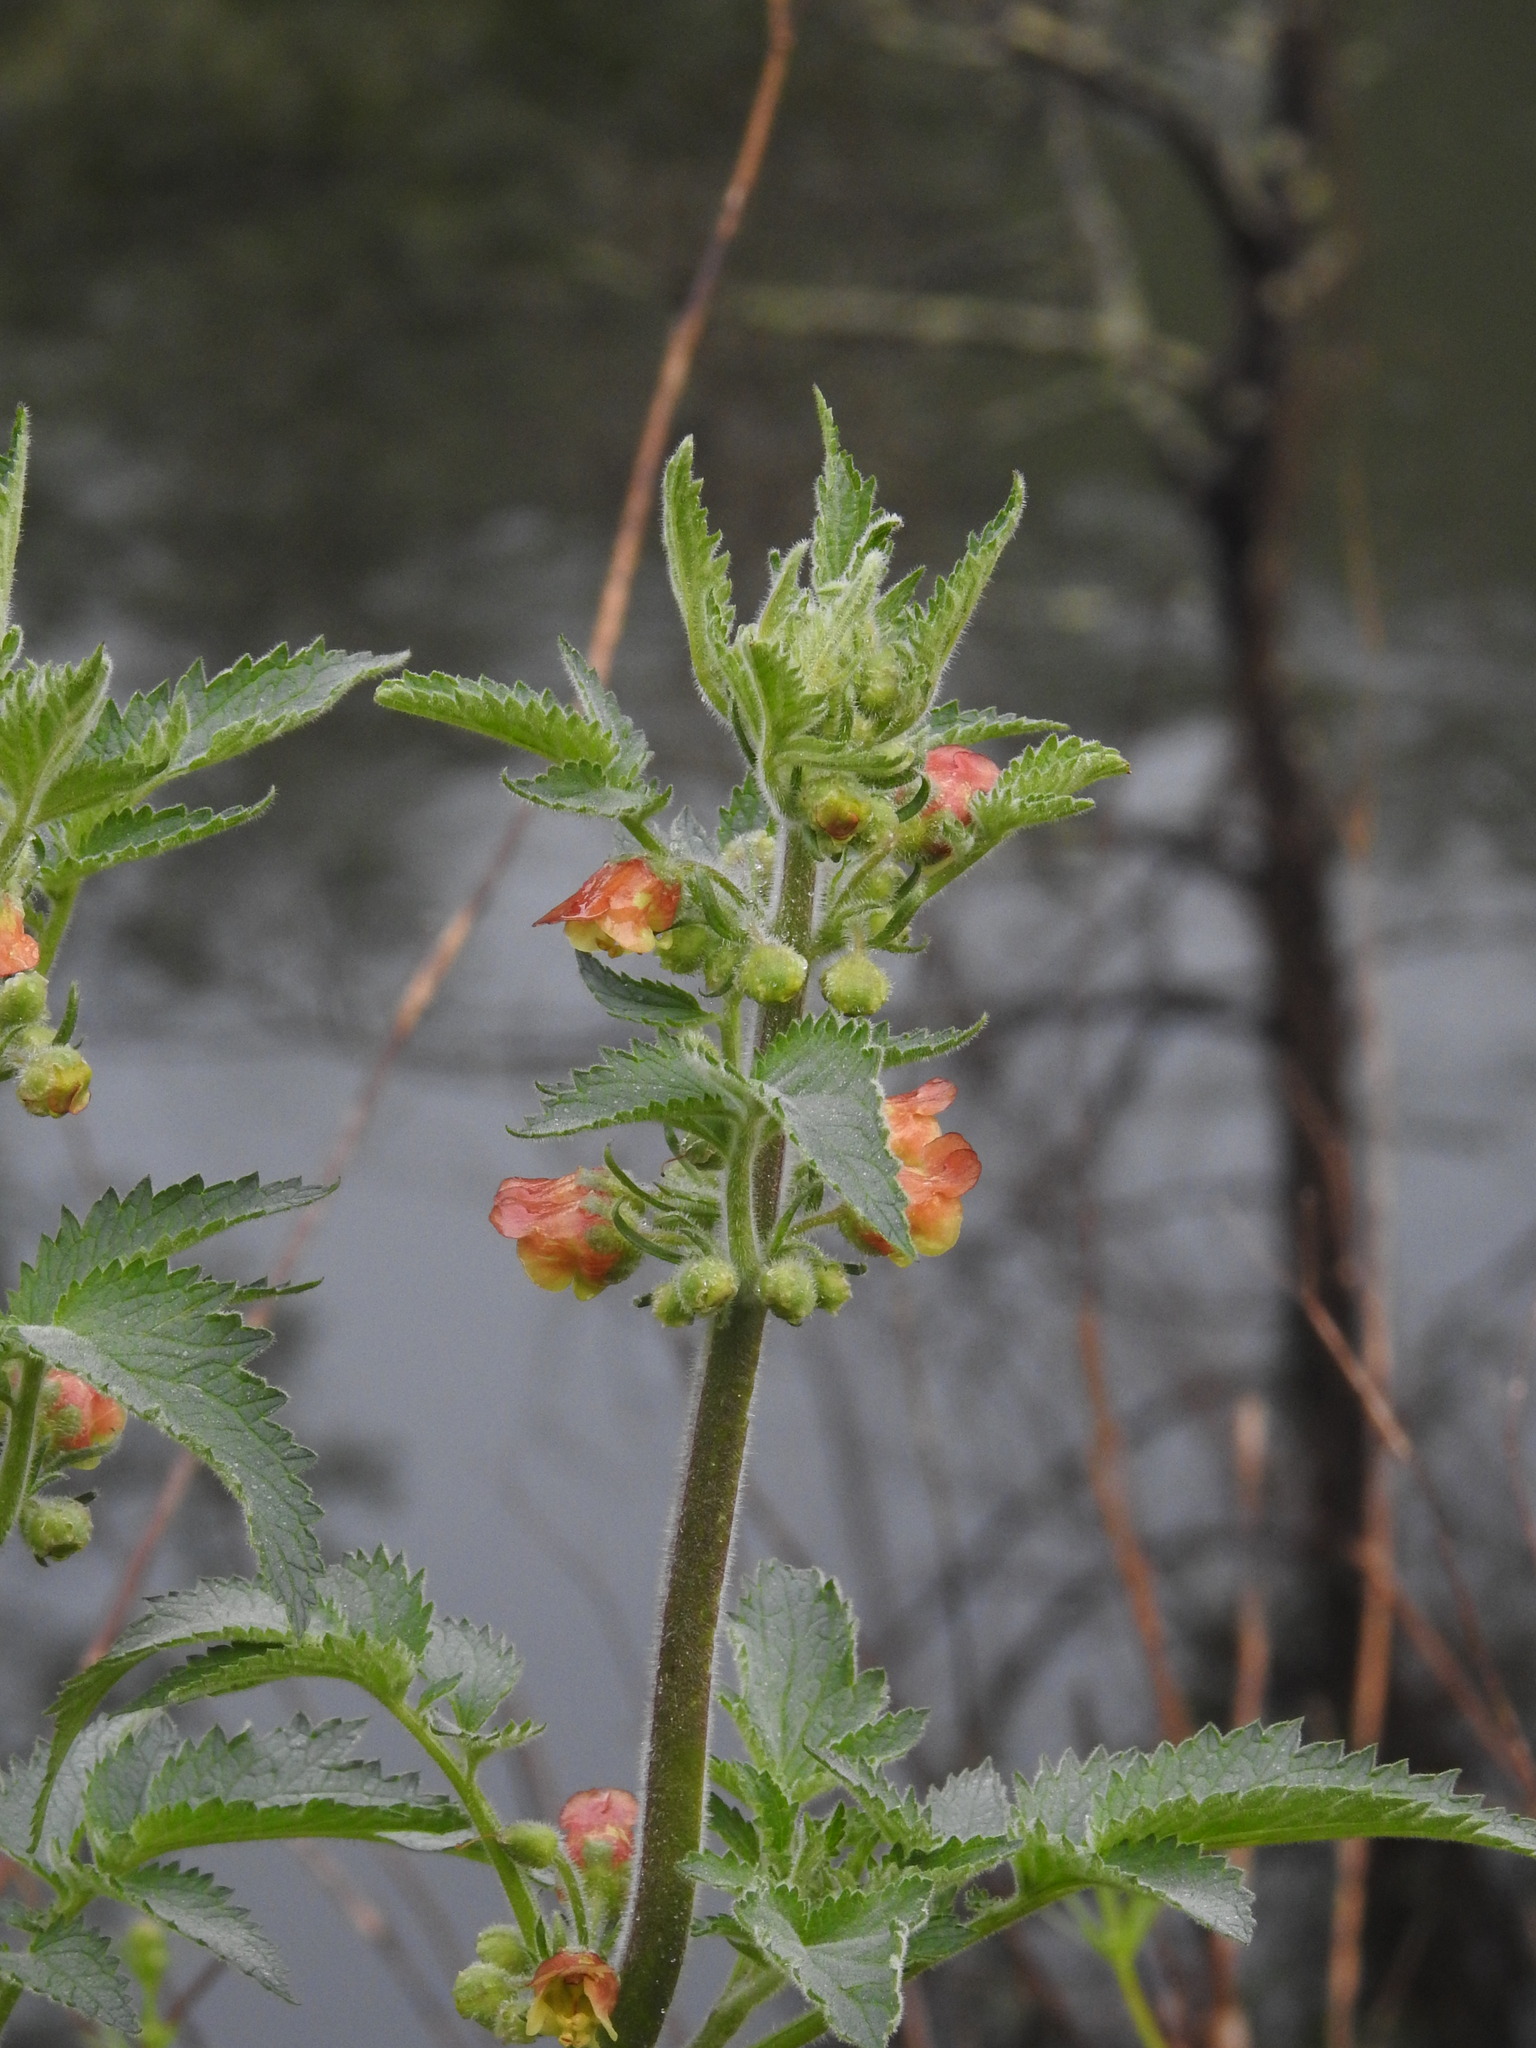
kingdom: Plantae
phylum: Tracheophyta
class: Magnoliopsida
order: Lamiales
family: Scrophulariaceae
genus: Scrophularia
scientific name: Scrophularia grandiflora
